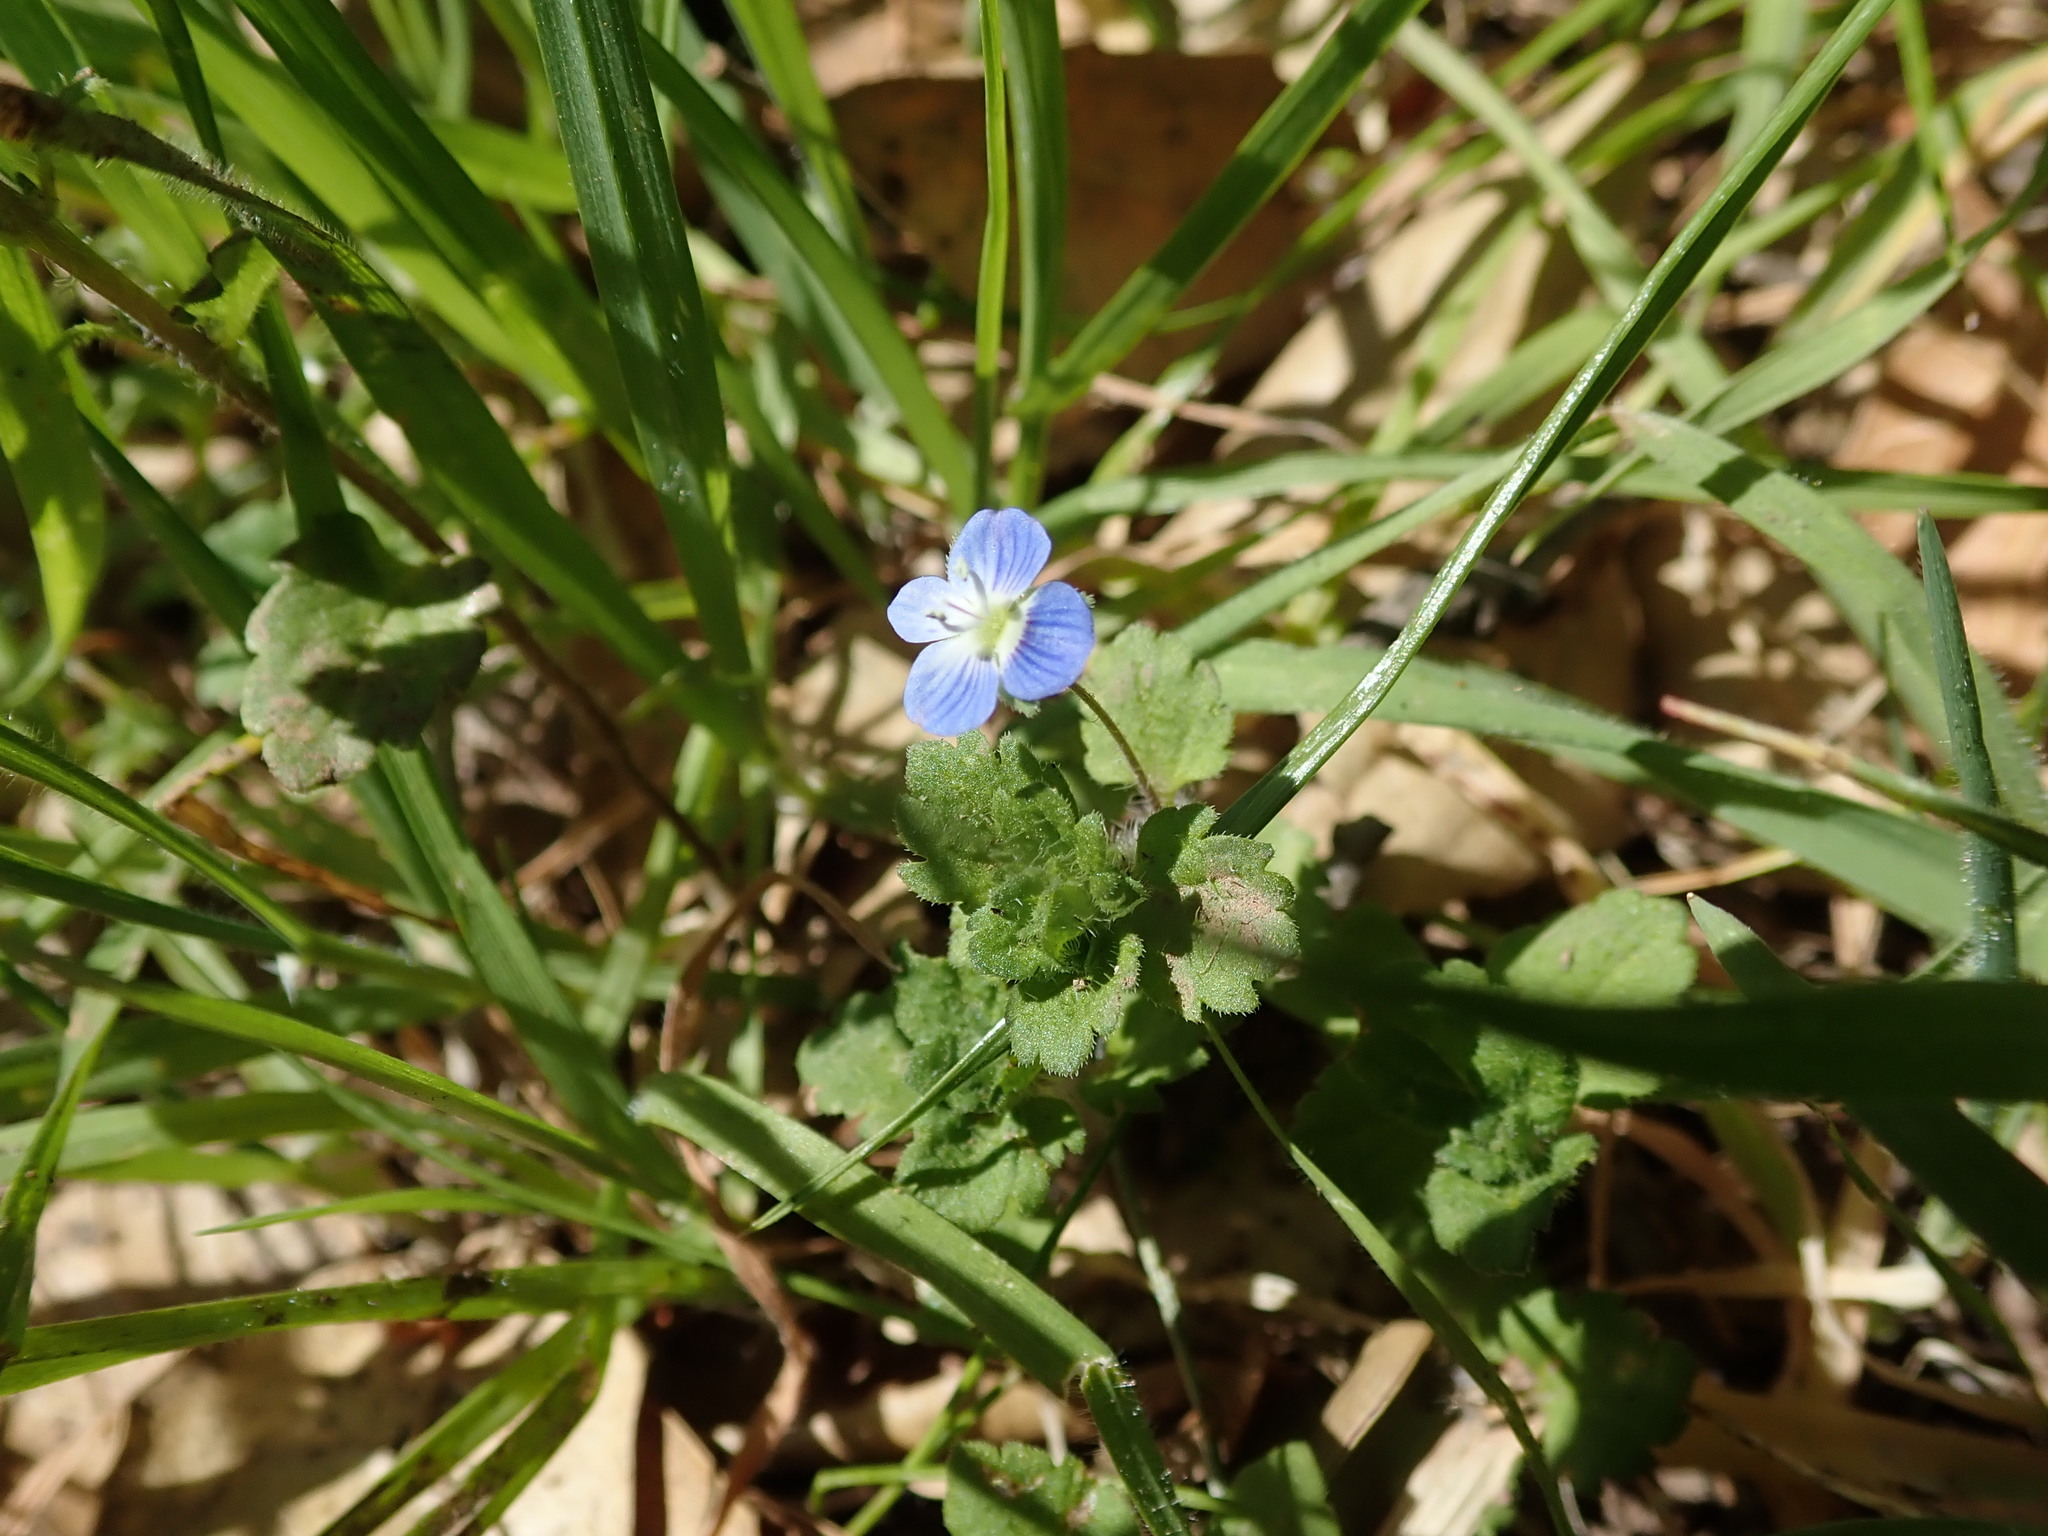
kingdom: Plantae
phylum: Tracheophyta
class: Magnoliopsida
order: Lamiales
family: Plantaginaceae
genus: Veronica
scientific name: Veronica persica
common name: Common field-speedwell
